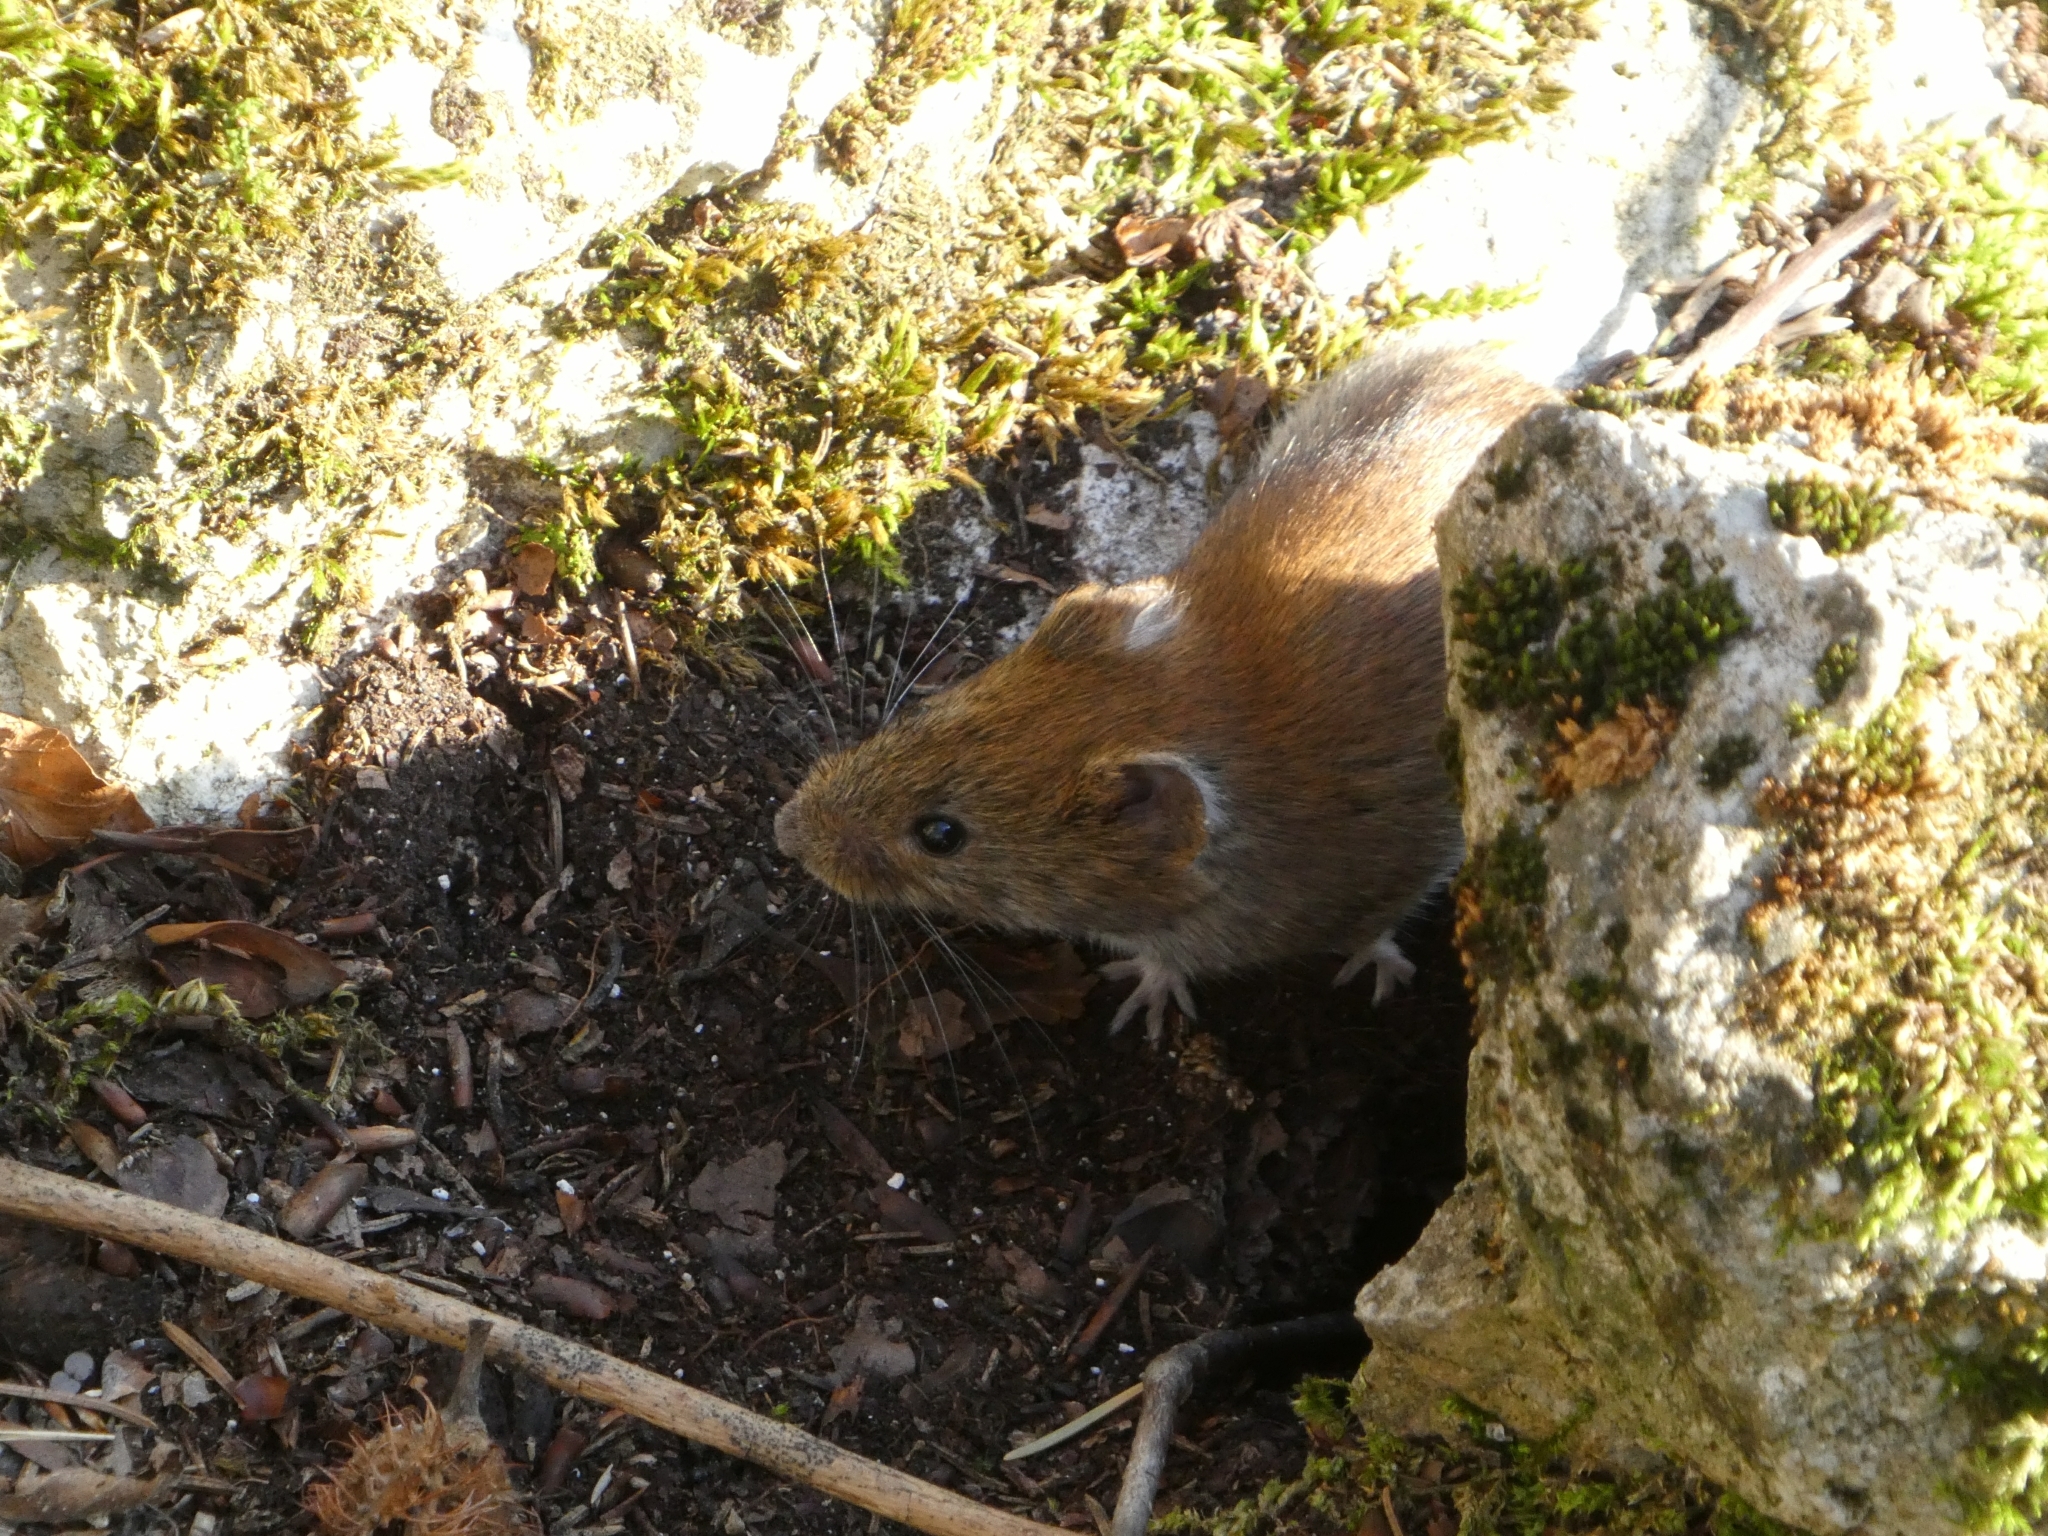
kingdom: Animalia
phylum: Chordata
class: Mammalia
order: Rodentia
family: Cricetidae
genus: Myodes
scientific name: Myodes glareolus
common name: Bank vole
